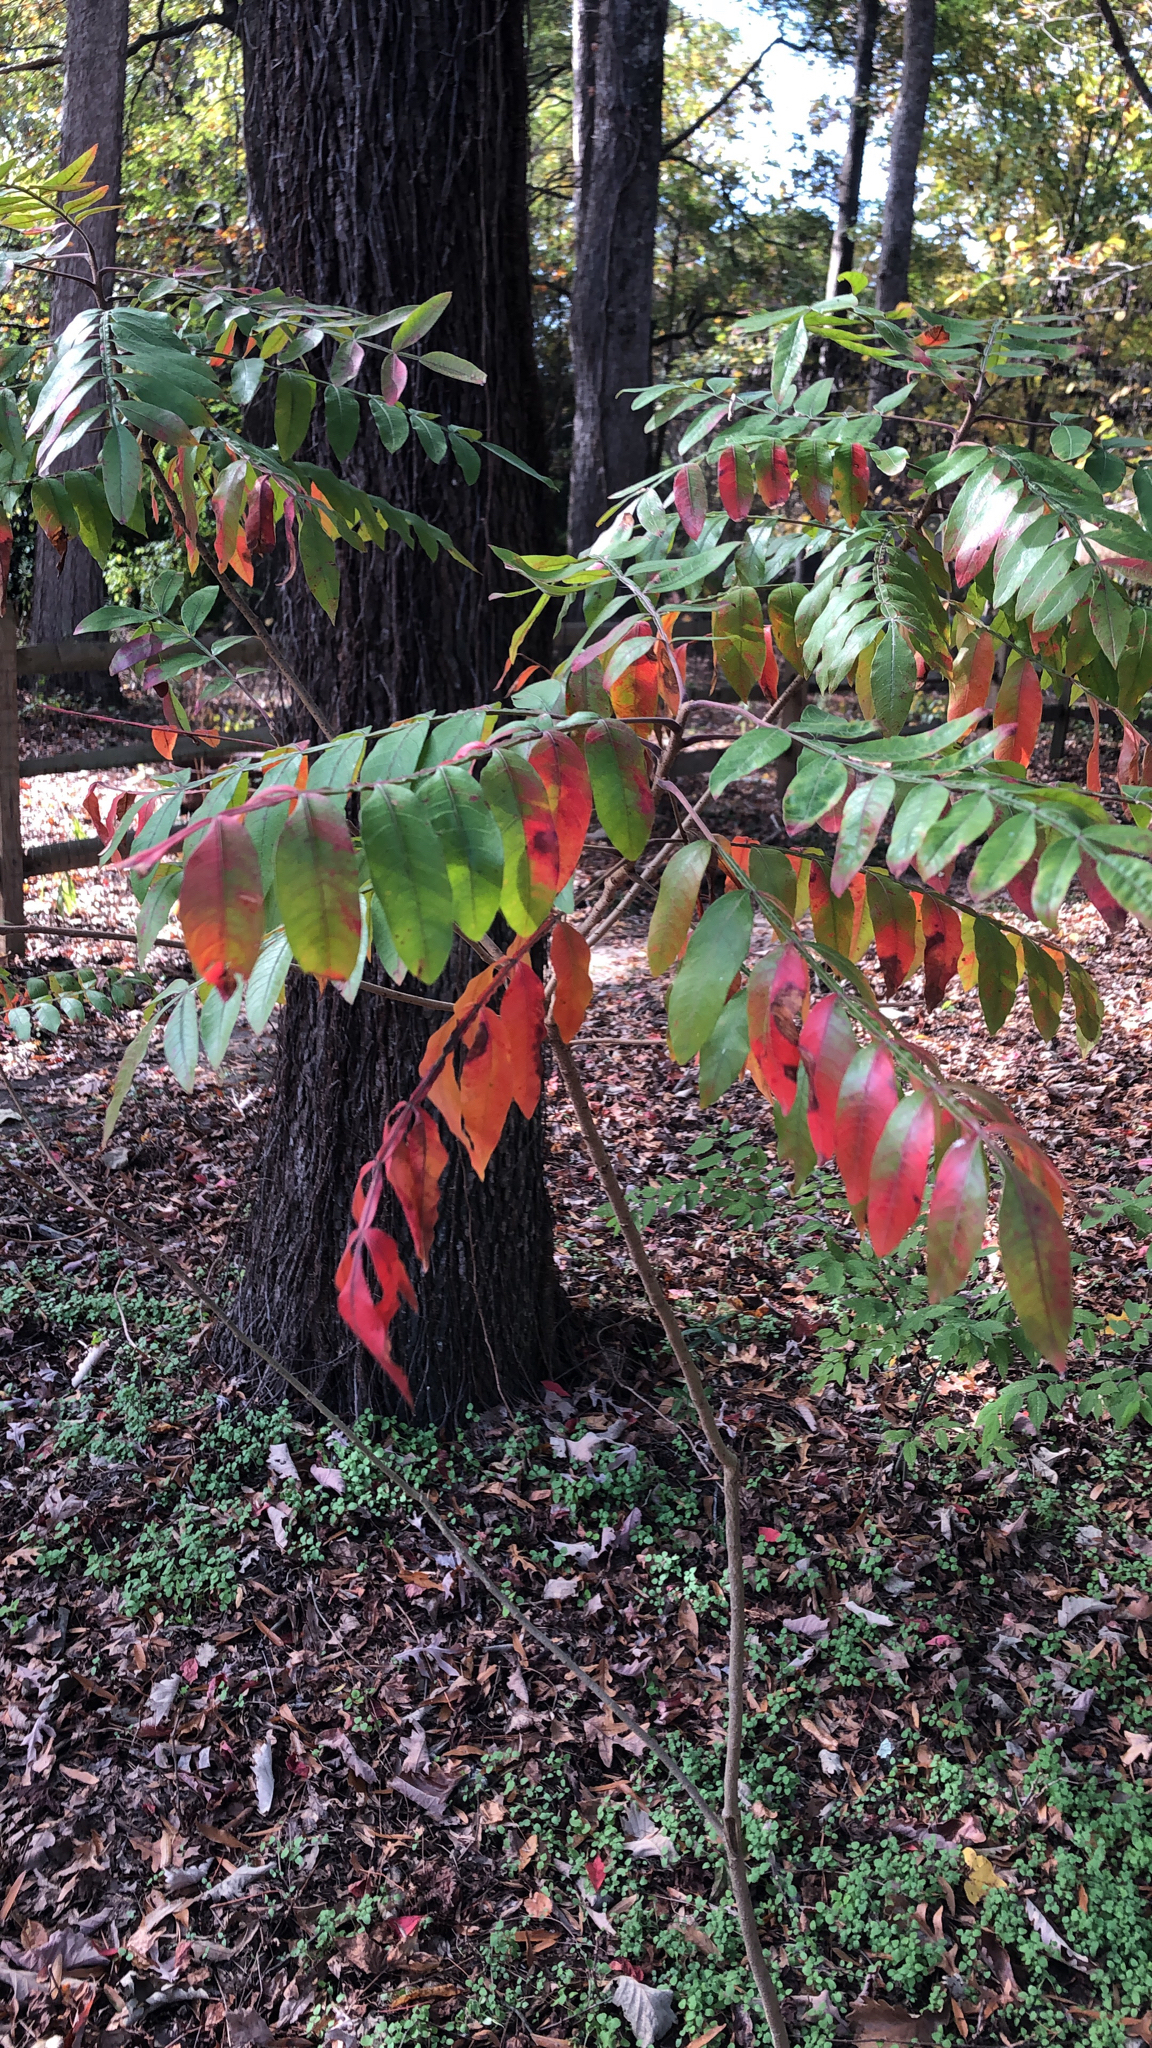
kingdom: Plantae
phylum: Tracheophyta
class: Magnoliopsida
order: Sapindales
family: Anacardiaceae
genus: Rhus
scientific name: Rhus copallina
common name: Shining sumac
